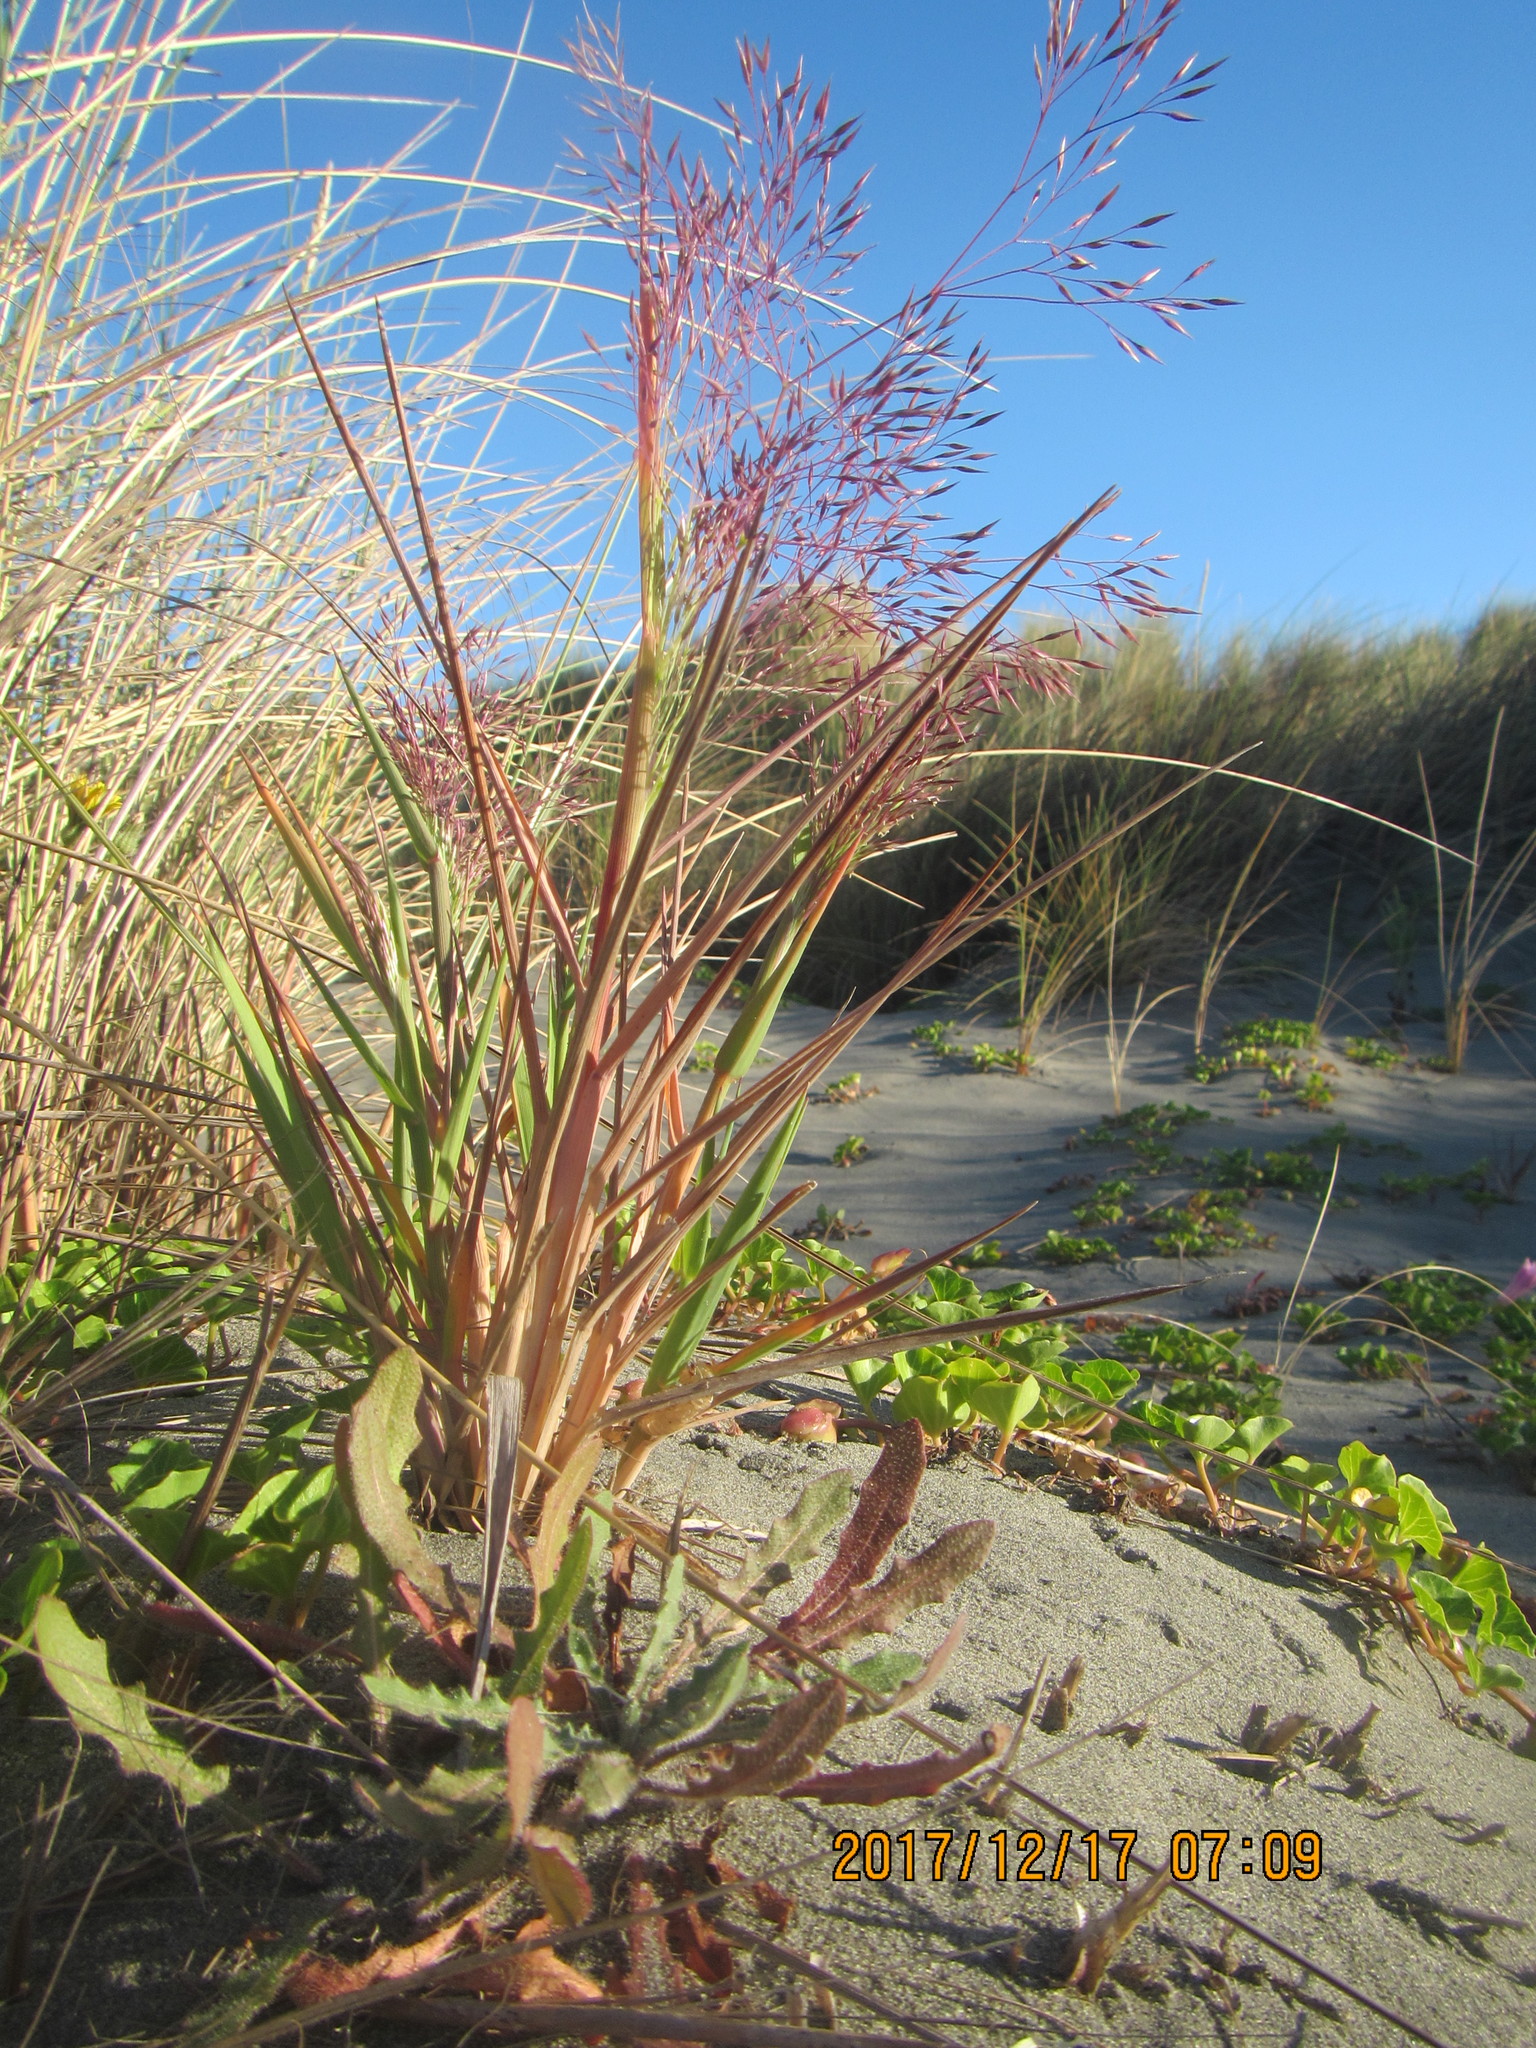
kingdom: Plantae
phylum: Tracheophyta
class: Liliopsida
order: Poales
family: Poaceae
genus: Lachnagrostis
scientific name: Lachnagrostis billardierei
